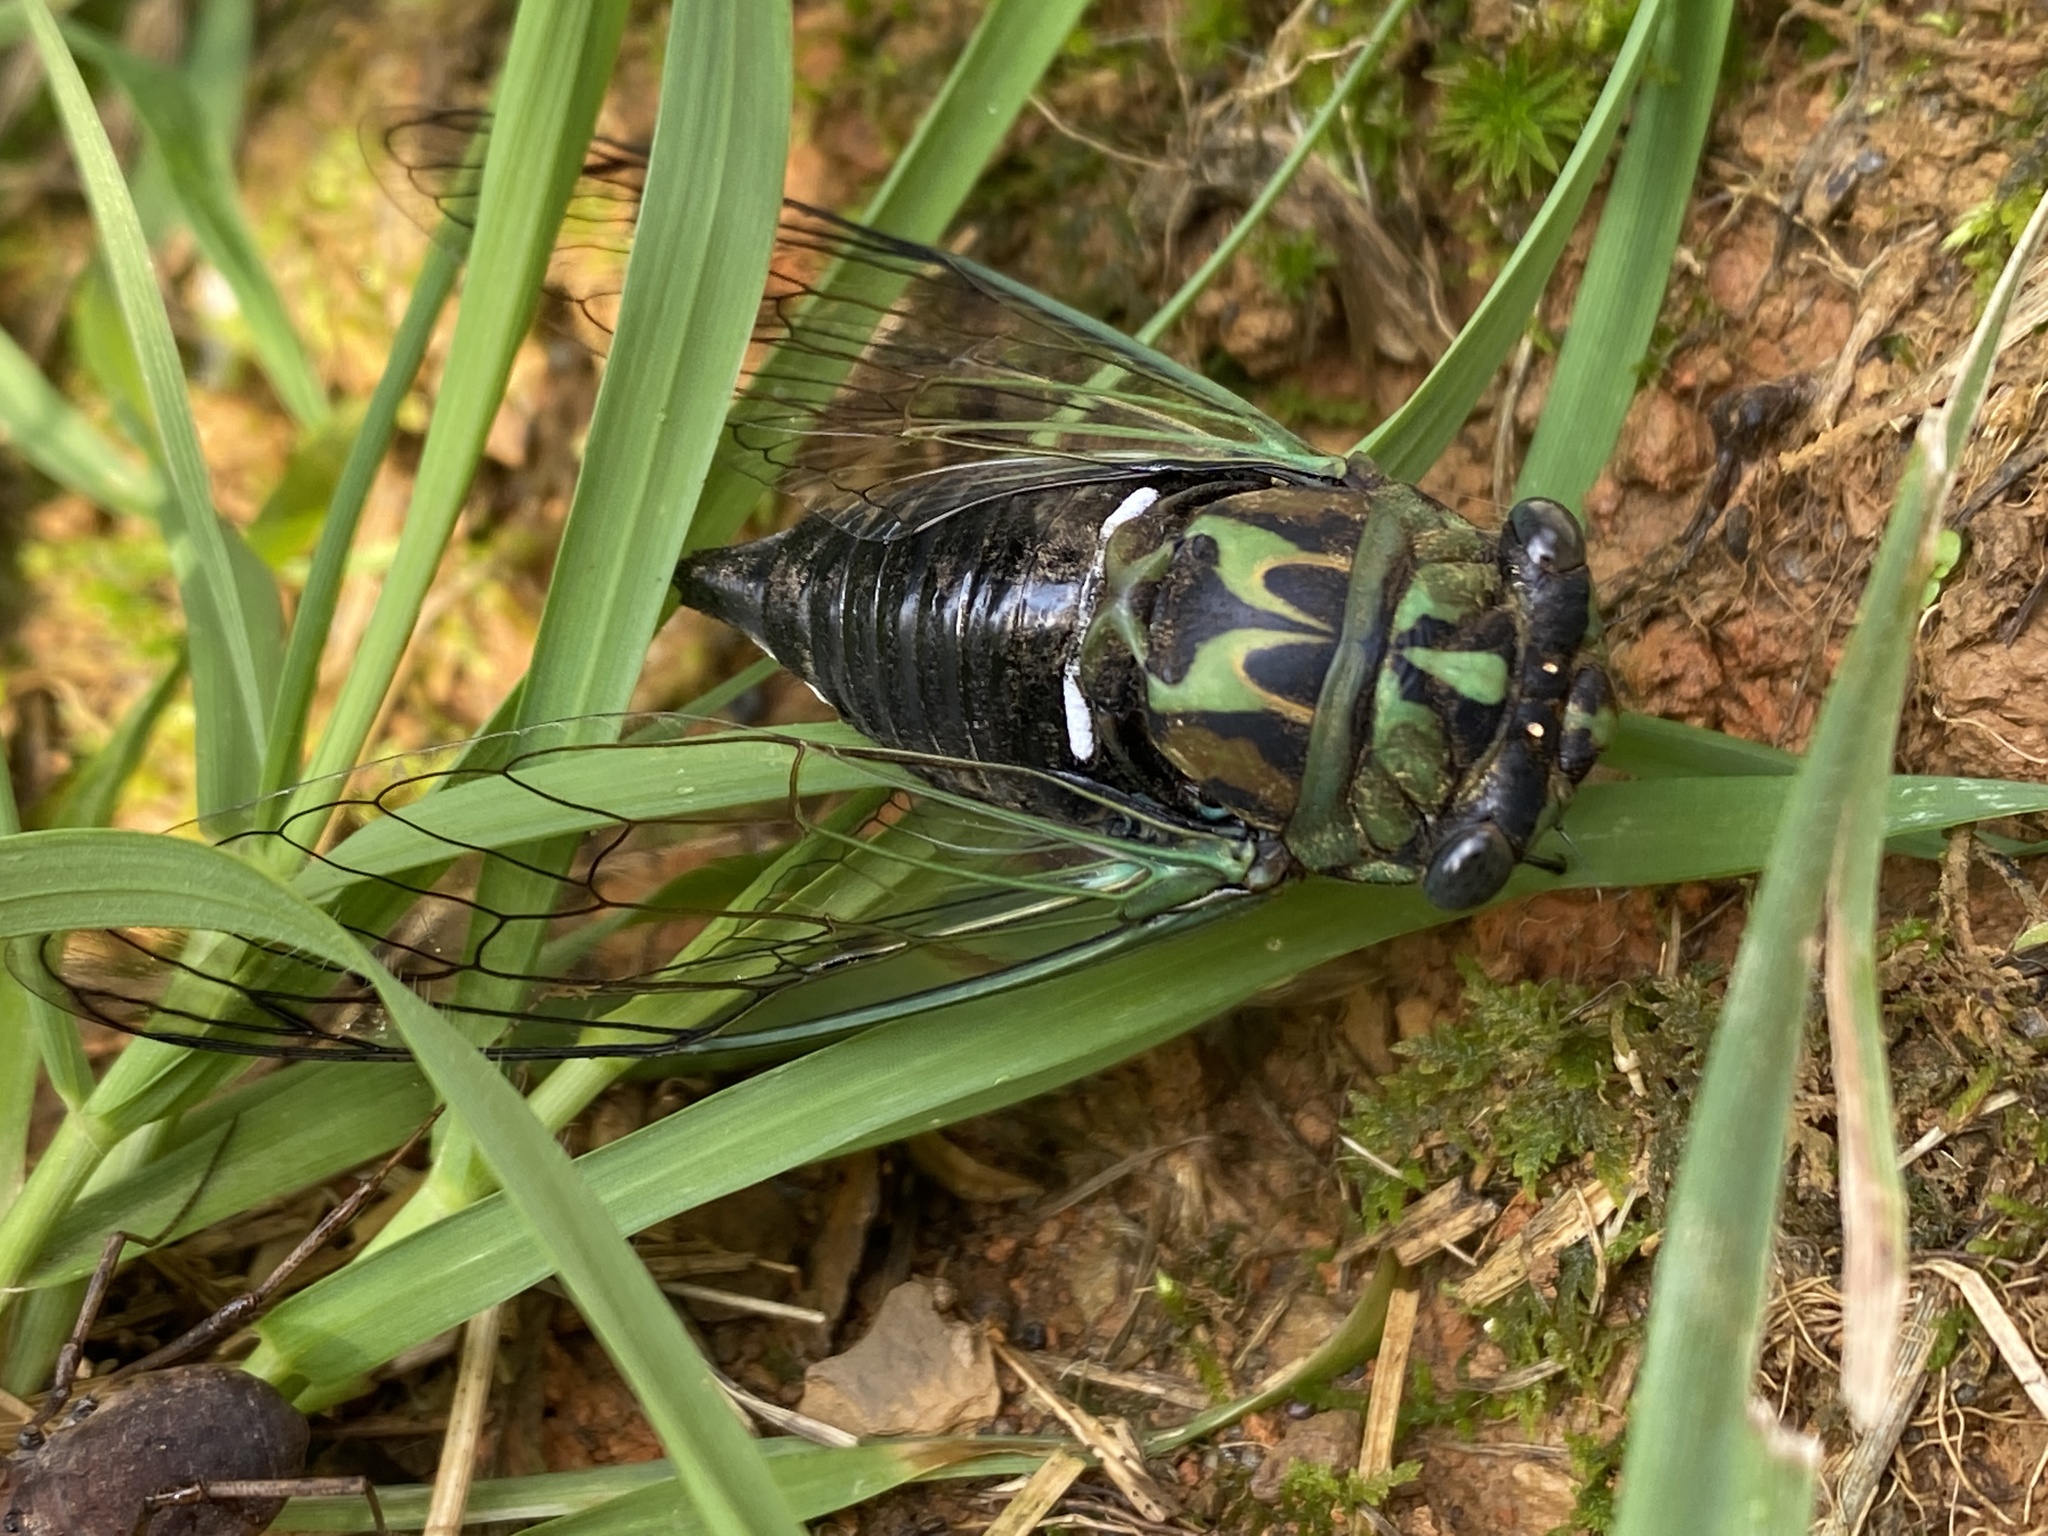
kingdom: Animalia
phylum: Arthropoda
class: Insecta
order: Hemiptera
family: Cicadidae
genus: Neotibicen
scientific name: Neotibicen robinsonianus
